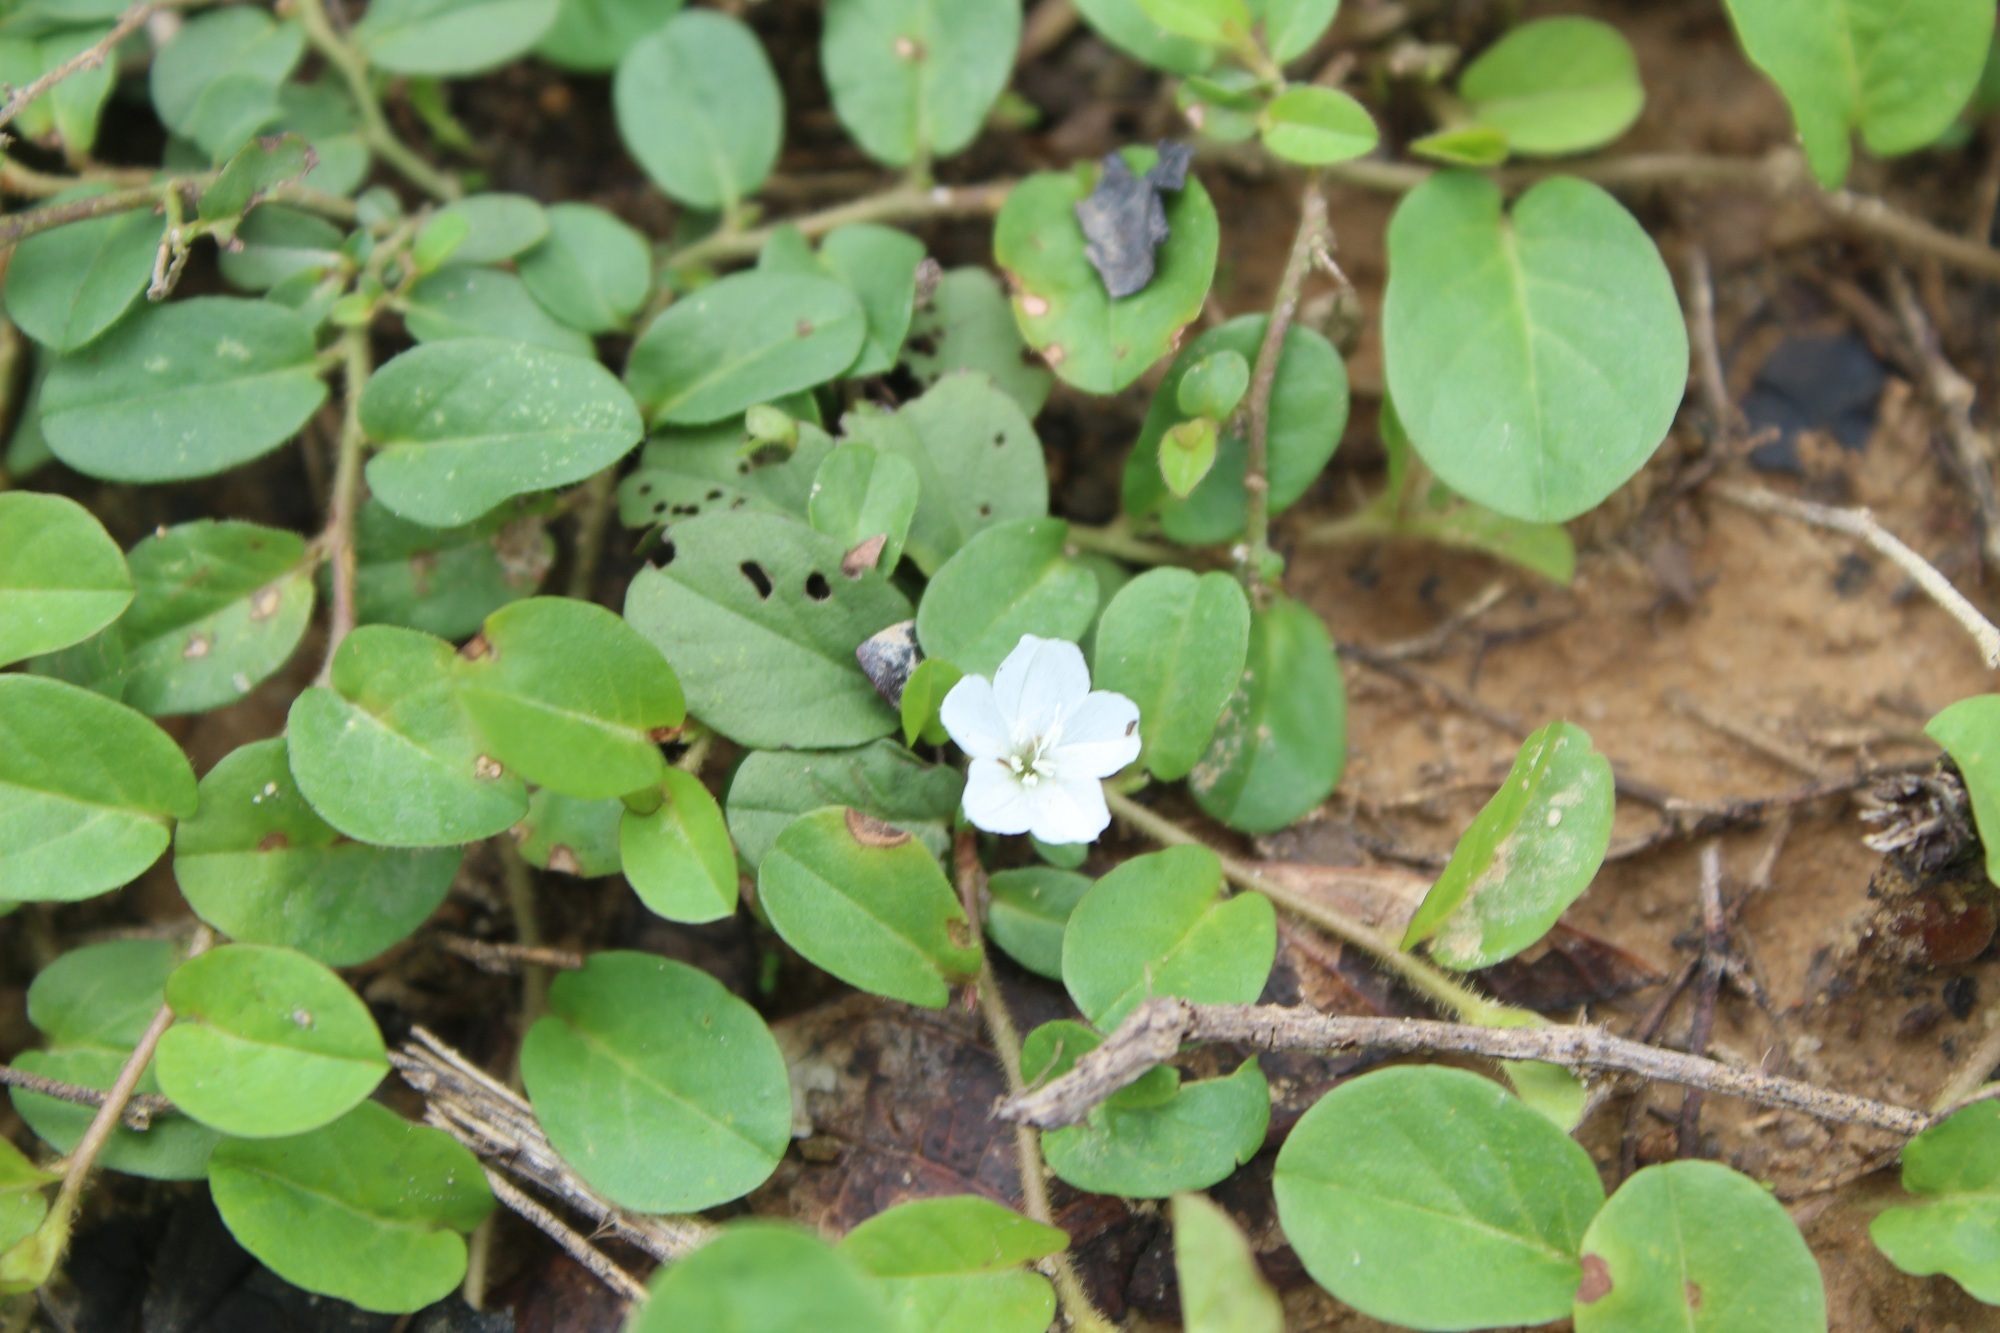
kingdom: Plantae
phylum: Tracheophyta
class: Magnoliopsida
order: Solanales
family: Convolvulaceae
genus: Evolvulus
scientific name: Evolvulus nummularius
